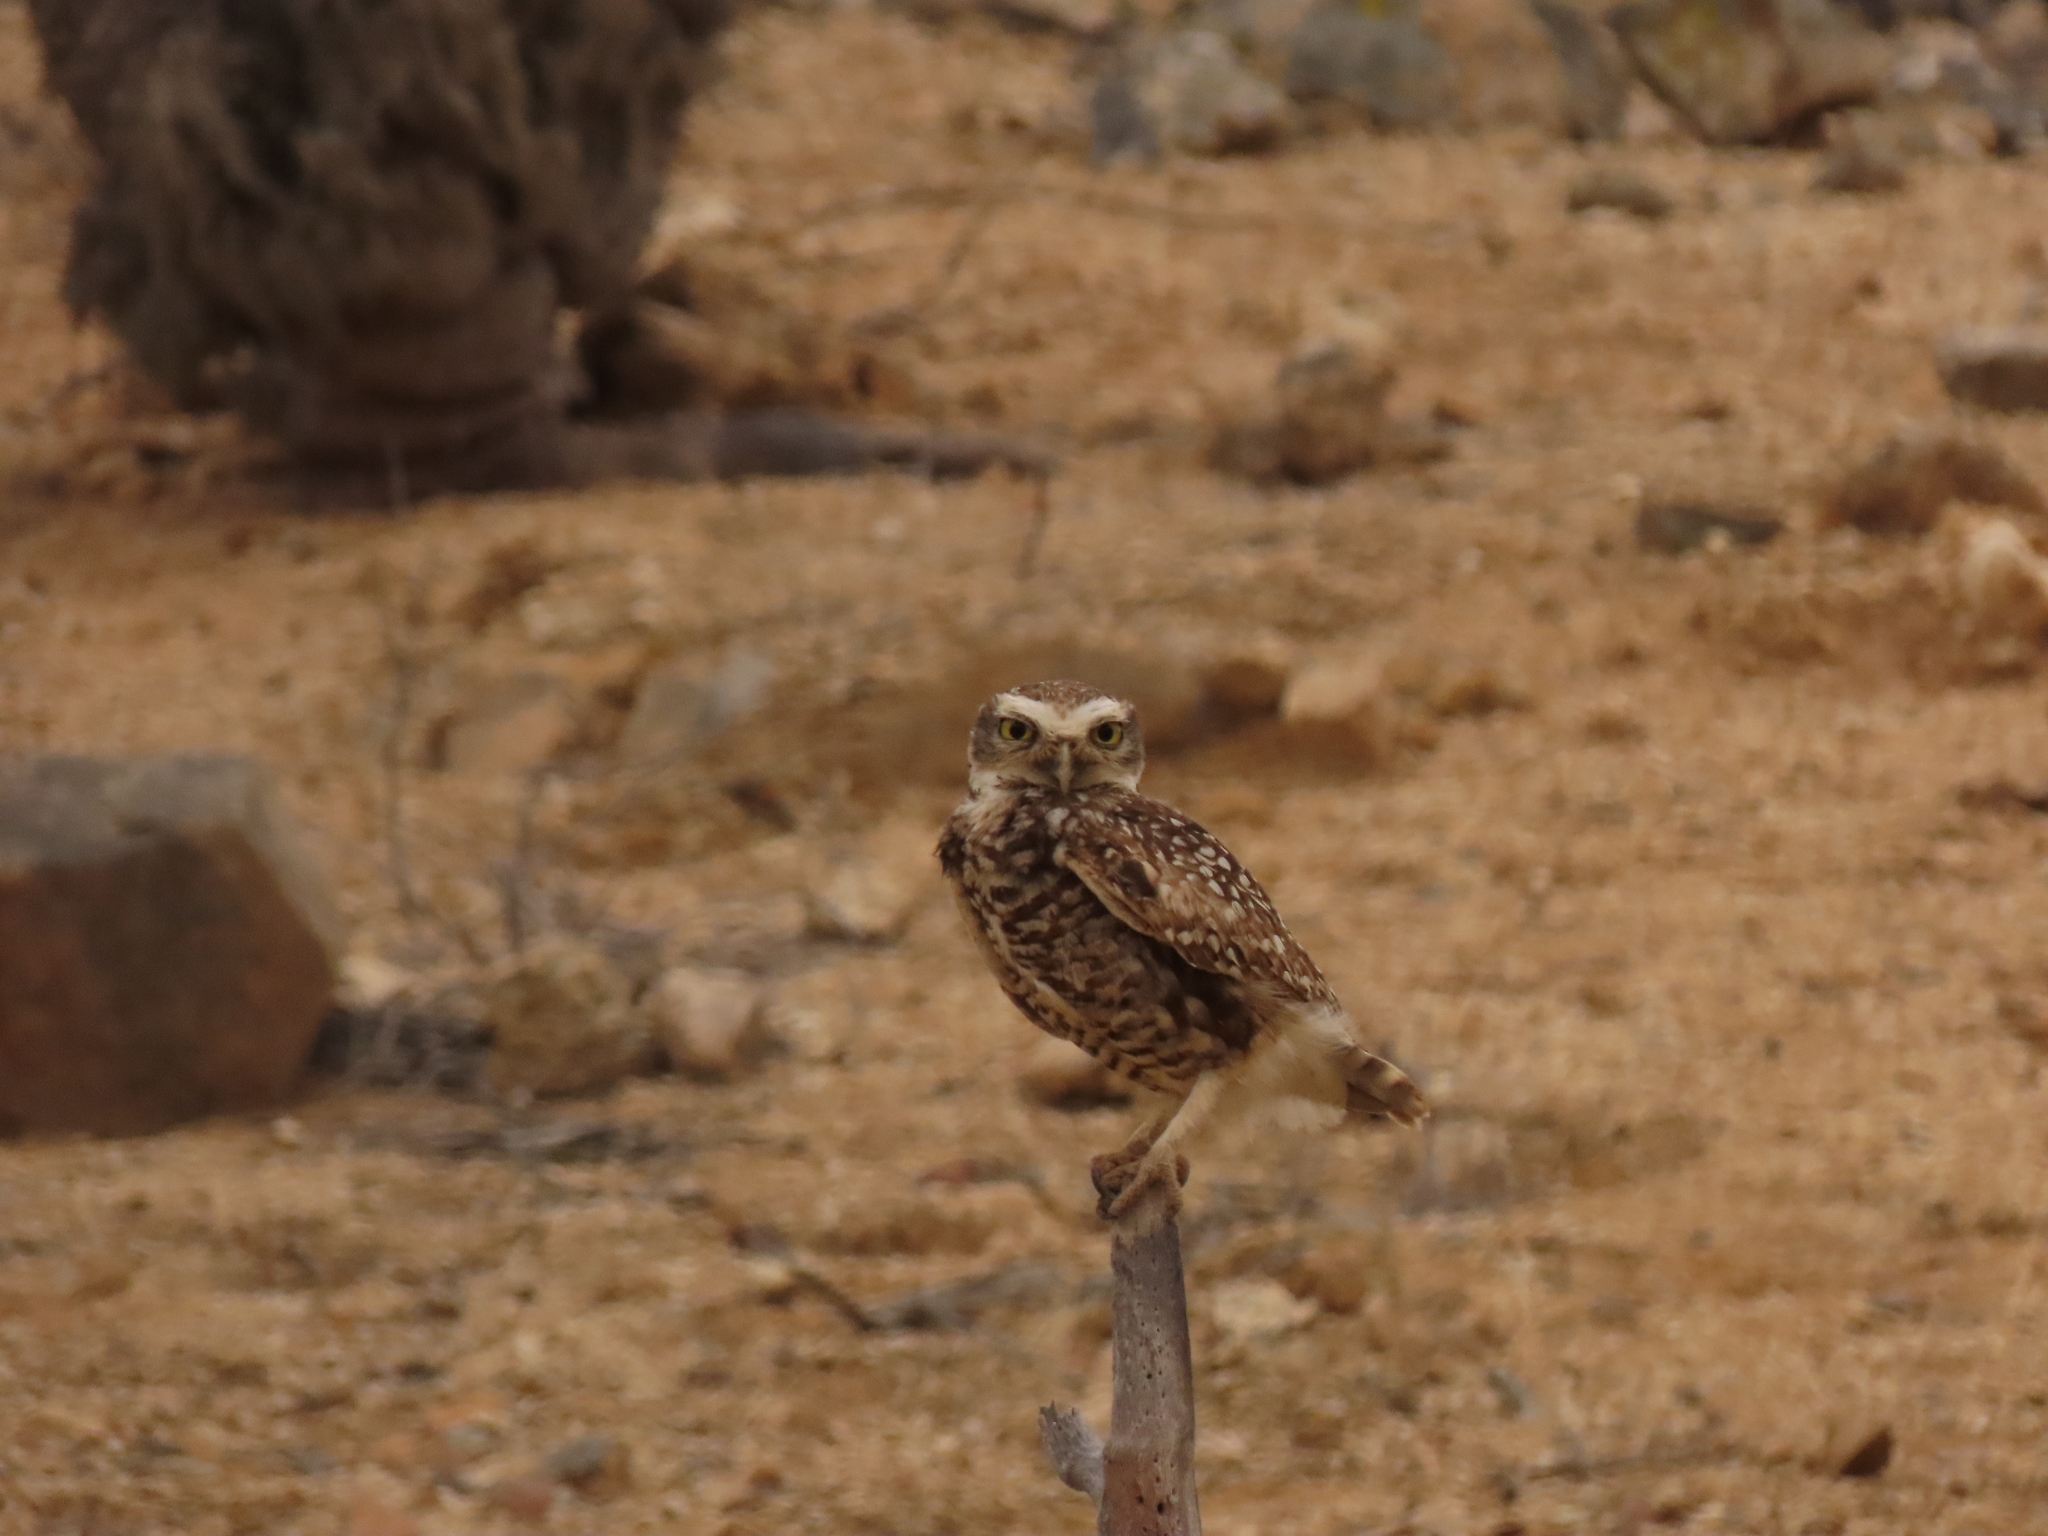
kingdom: Animalia
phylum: Chordata
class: Aves
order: Strigiformes
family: Strigidae
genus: Athene
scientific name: Athene cunicularia
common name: Burrowing owl
